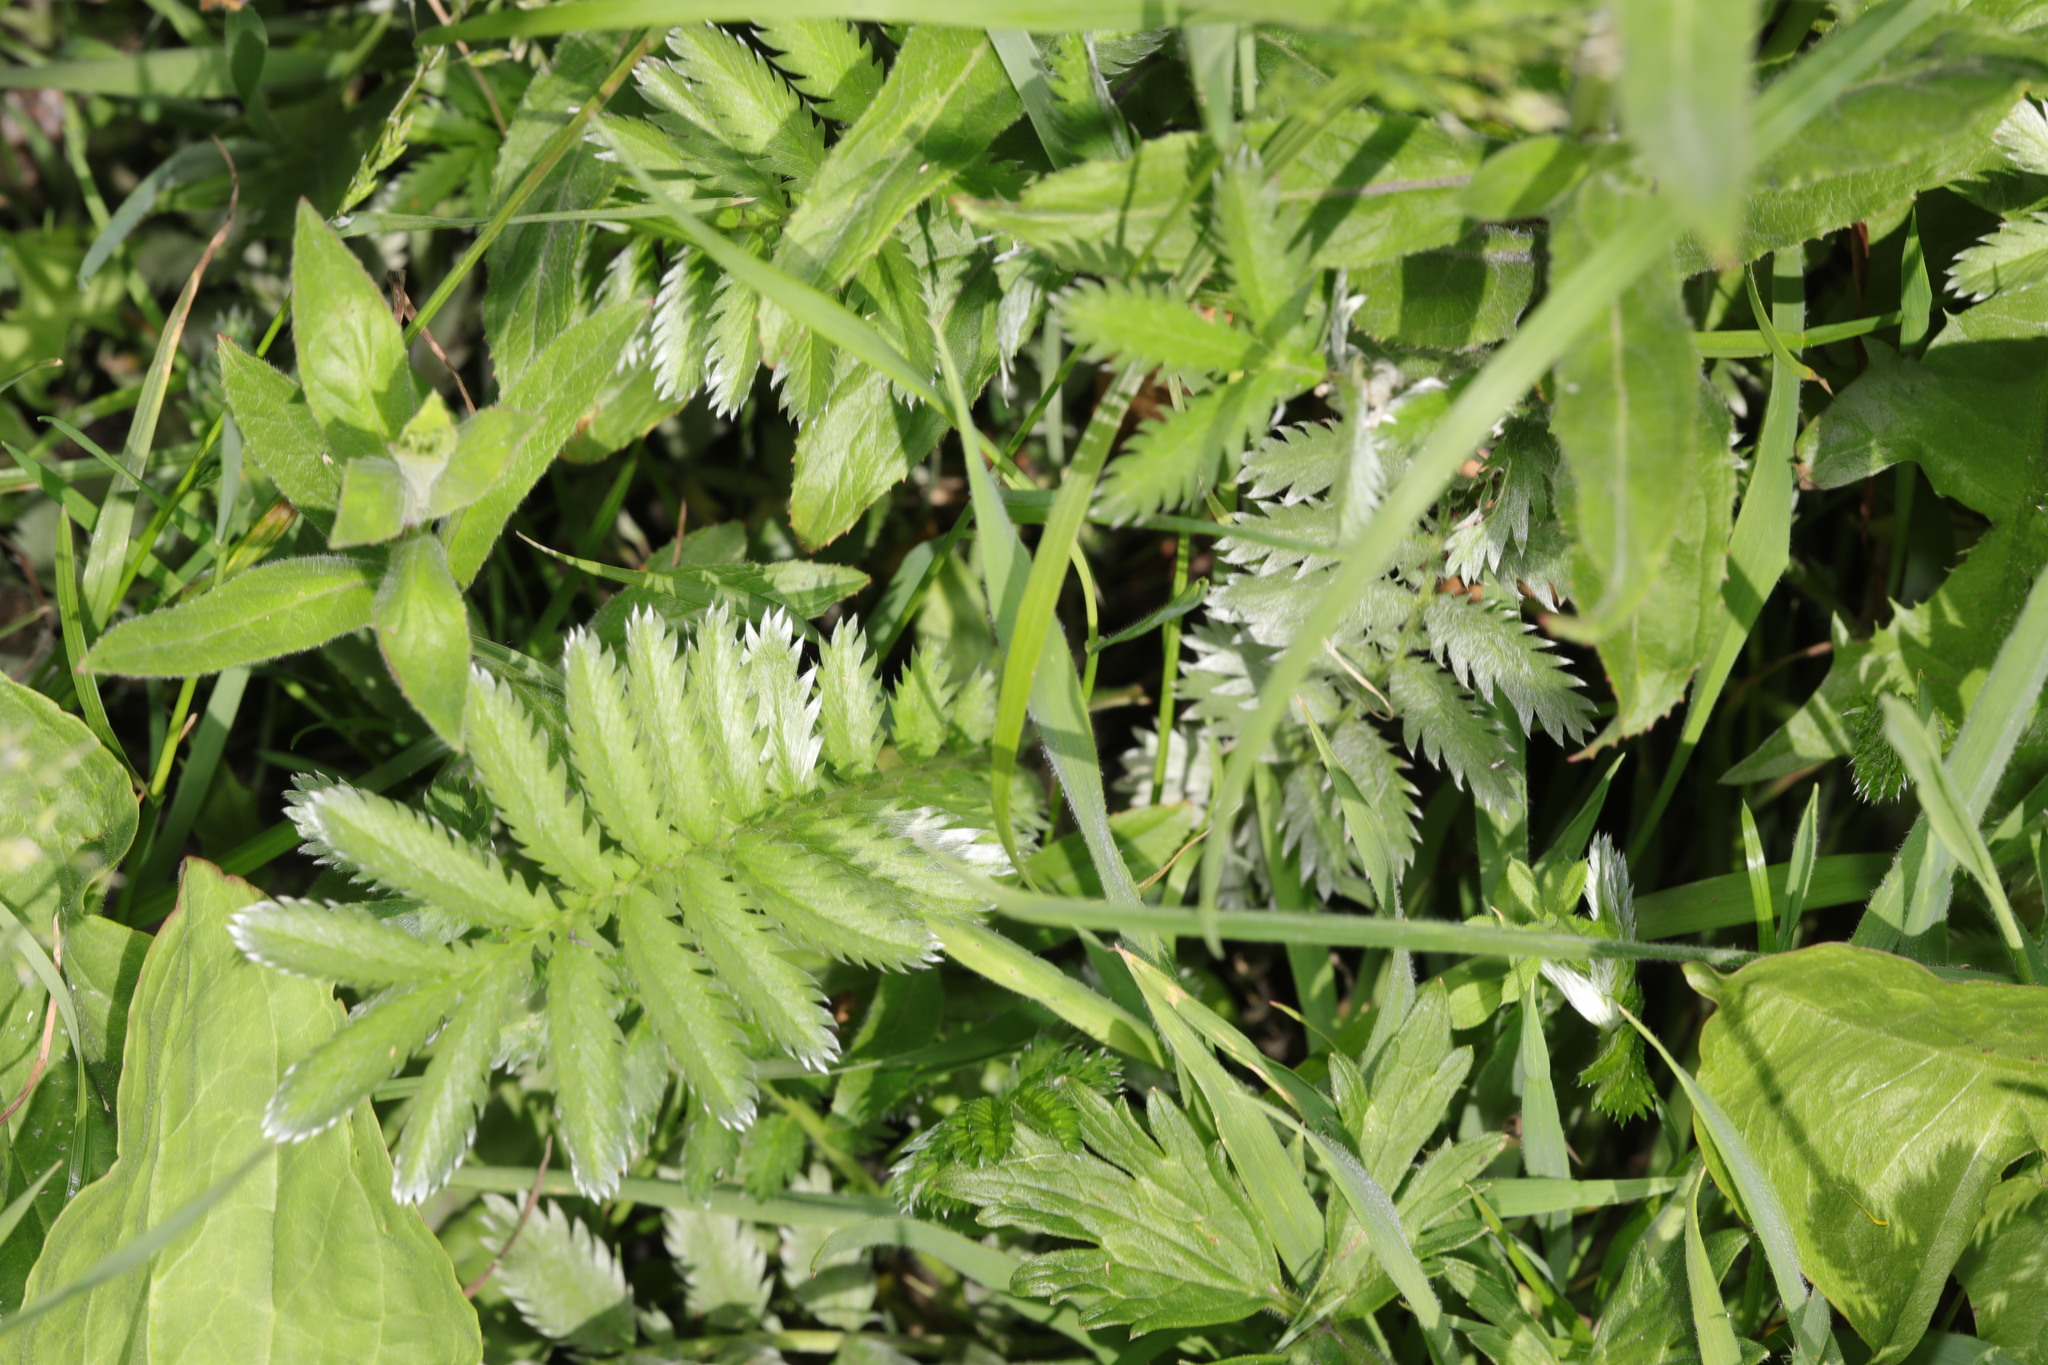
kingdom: Plantae
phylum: Tracheophyta
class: Magnoliopsida
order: Rosales
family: Rosaceae
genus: Argentina
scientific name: Argentina anserina
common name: Common silverweed
